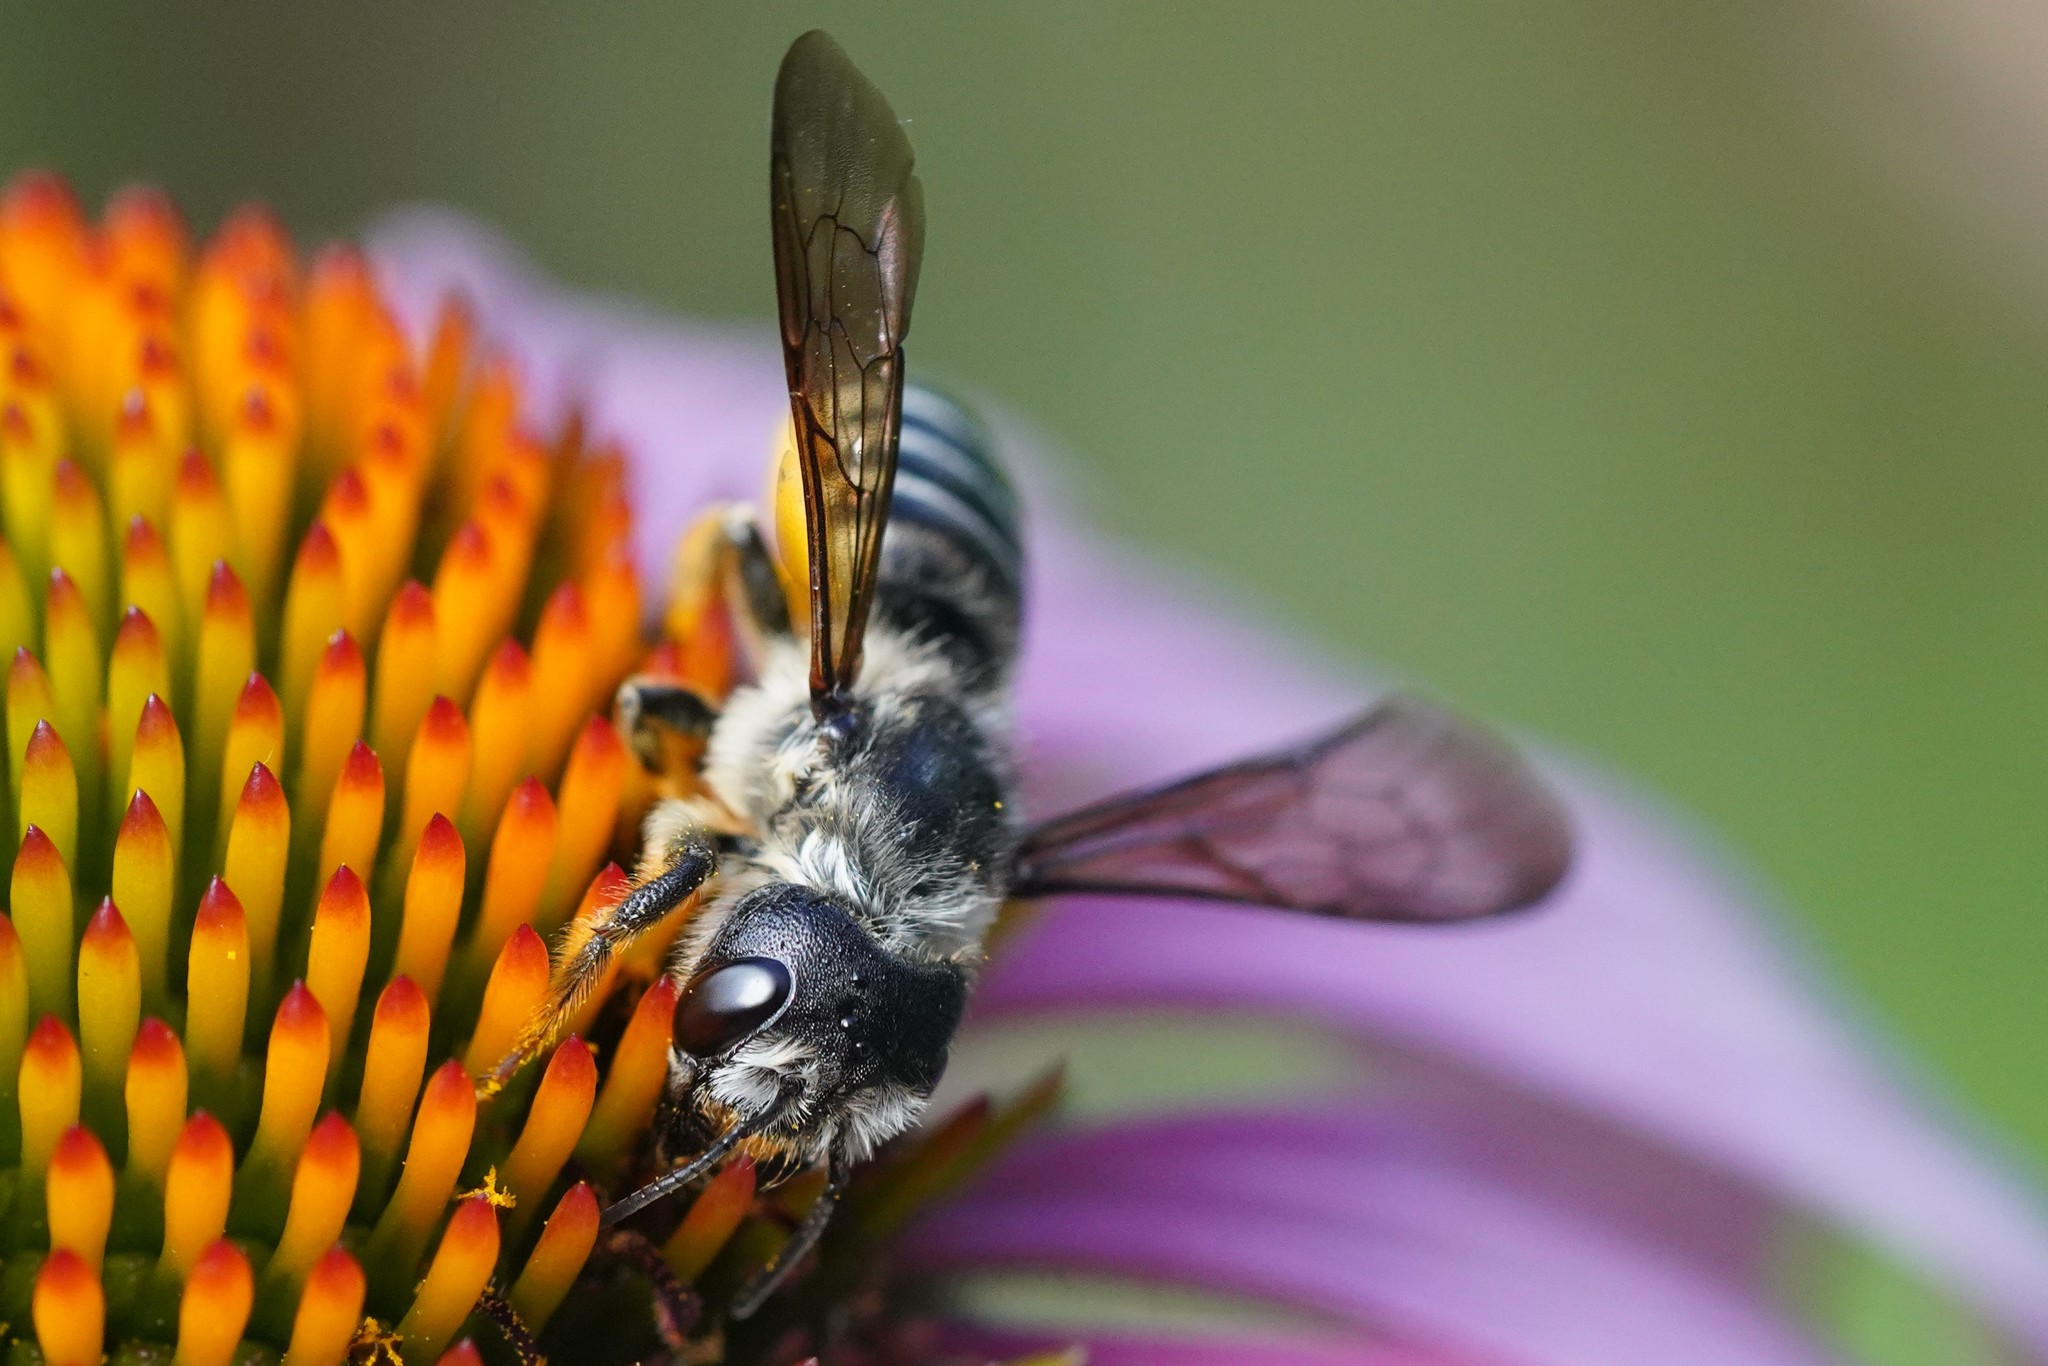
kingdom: Animalia
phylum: Arthropoda
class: Insecta
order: Hymenoptera
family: Megachilidae
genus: Megachile
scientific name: Megachile pugnata
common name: Pugnacious leafcutter bee
